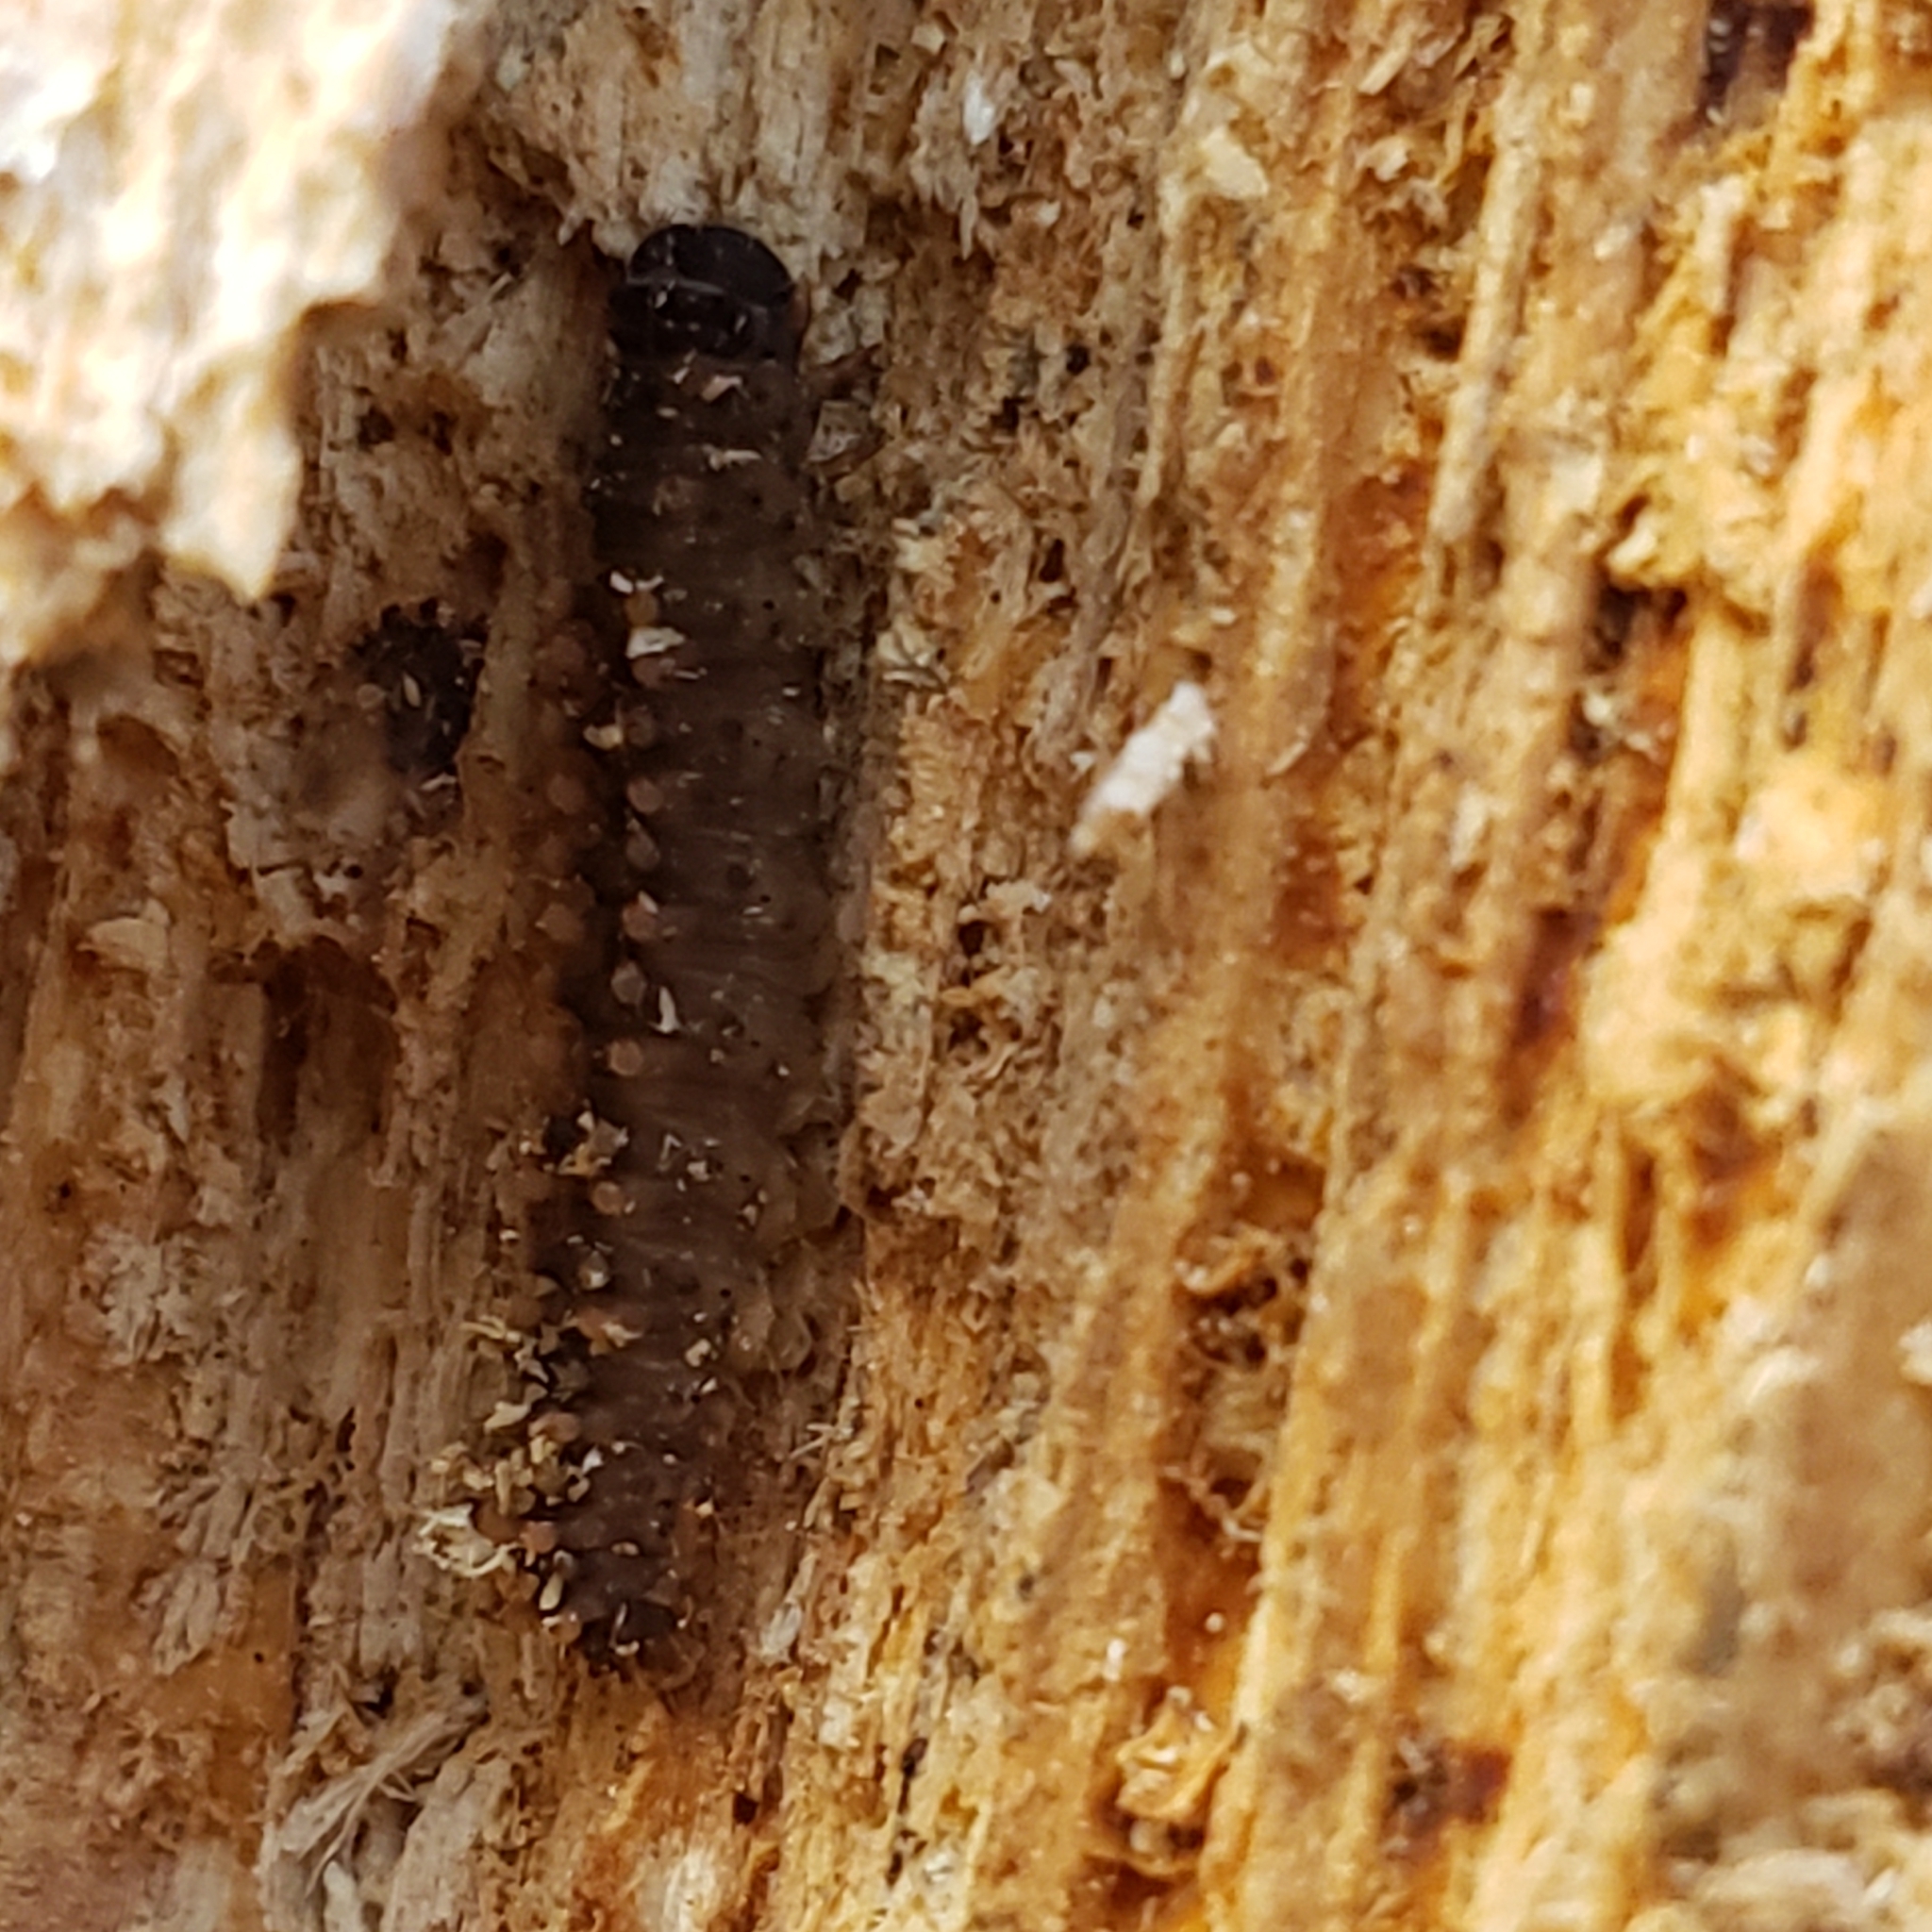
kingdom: Animalia
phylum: Arthropoda
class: Insecta
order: Lepidoptera
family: Erebidae
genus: Idia
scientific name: Idia lubricalis
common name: Twin-striped tabby
